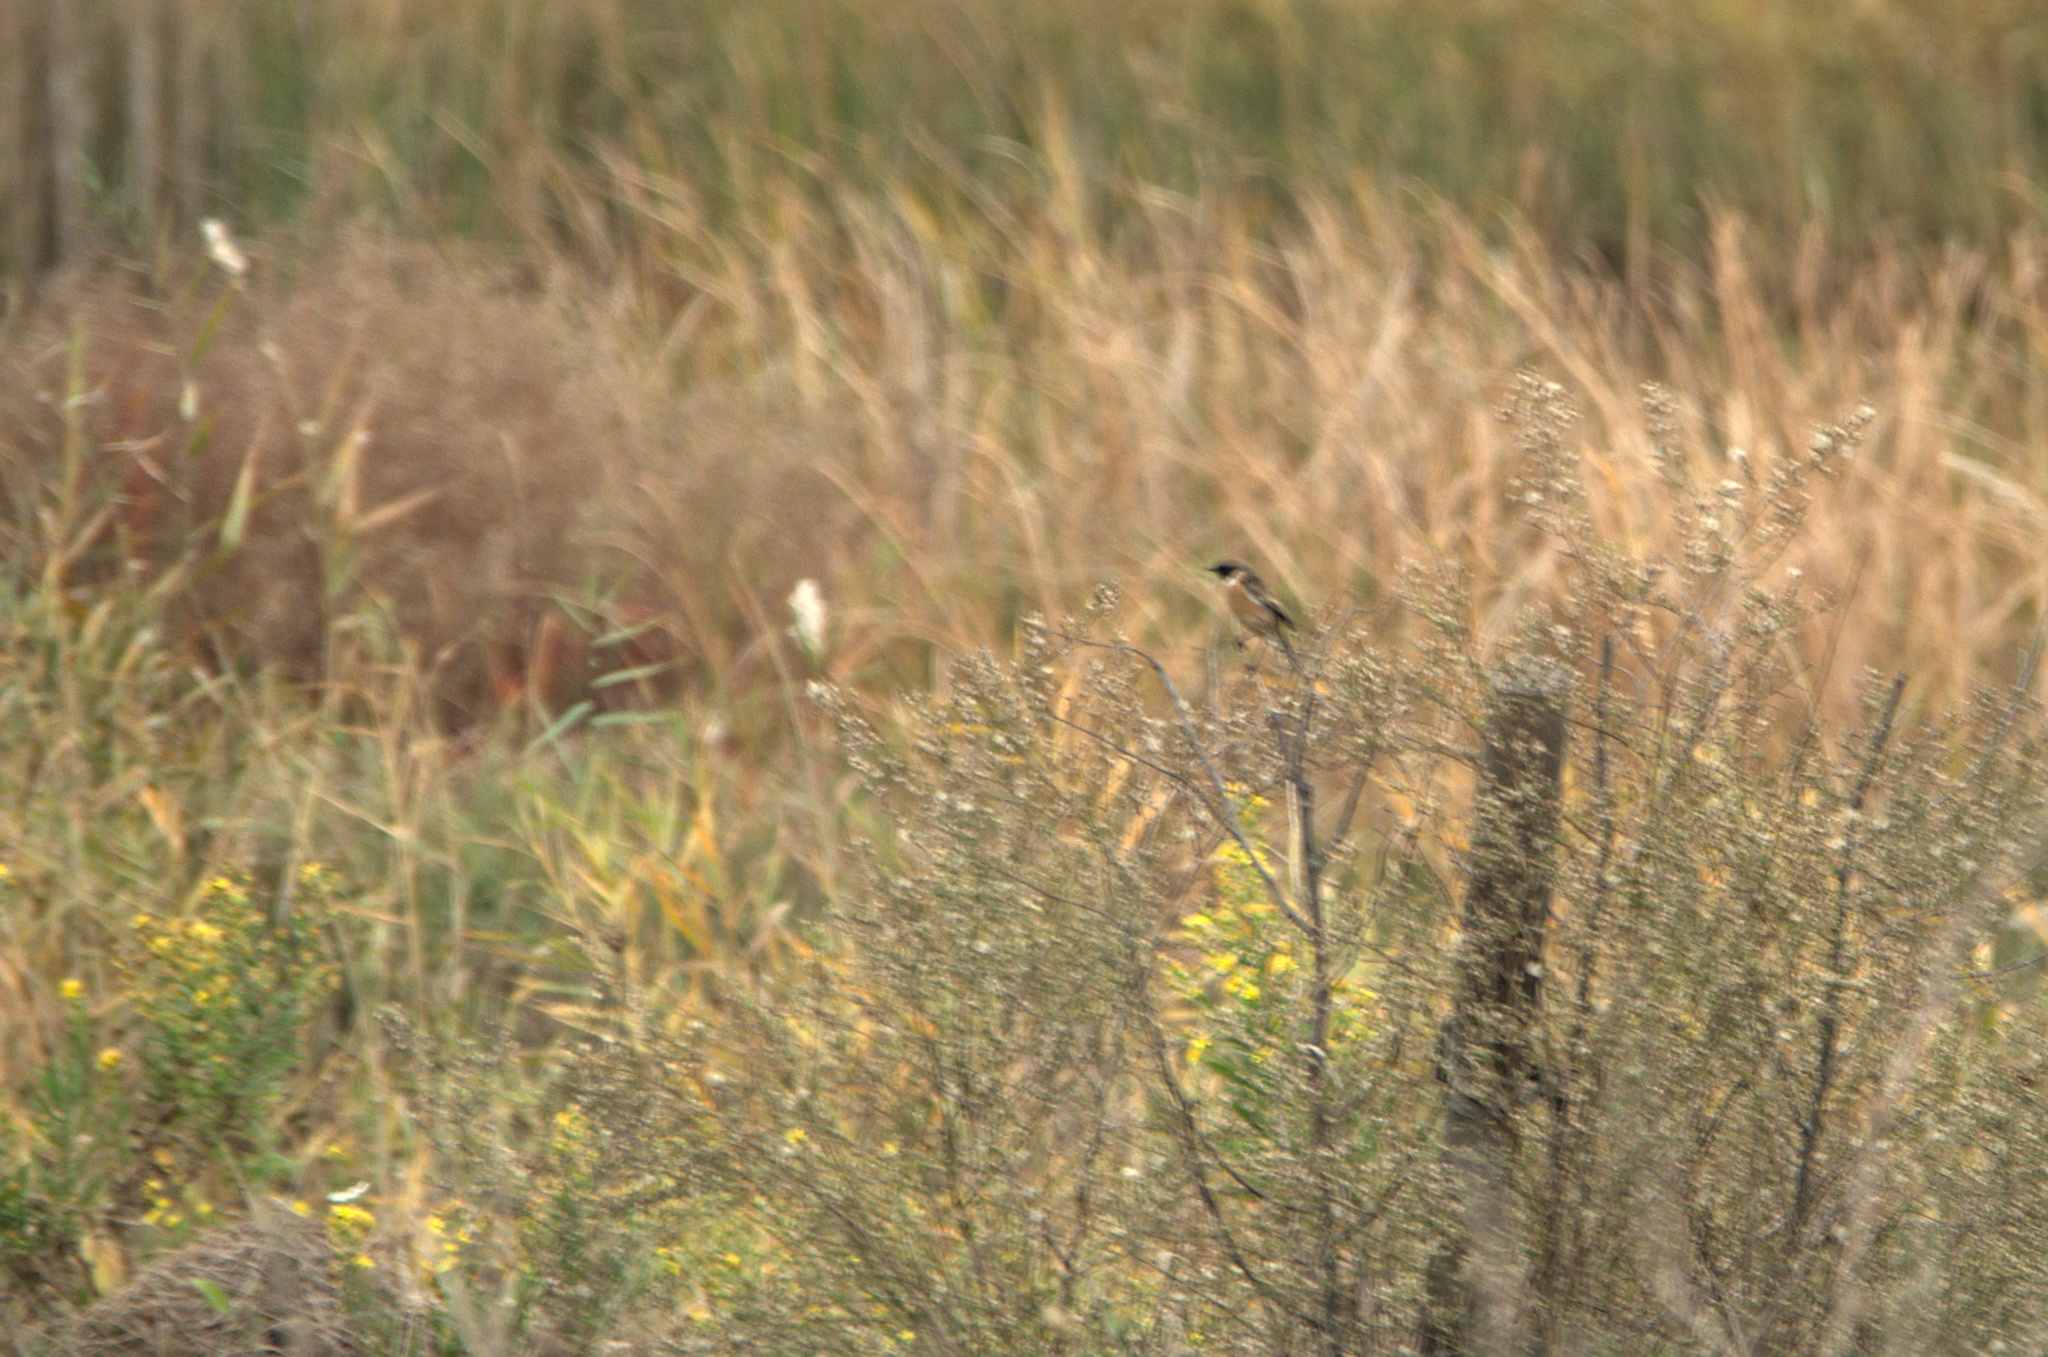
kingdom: Animalia
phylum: Chordata
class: Aves
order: Passeriformes
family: Muscicapidae
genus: Saxicola
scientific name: Saxicola rubicola
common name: European stonechat
